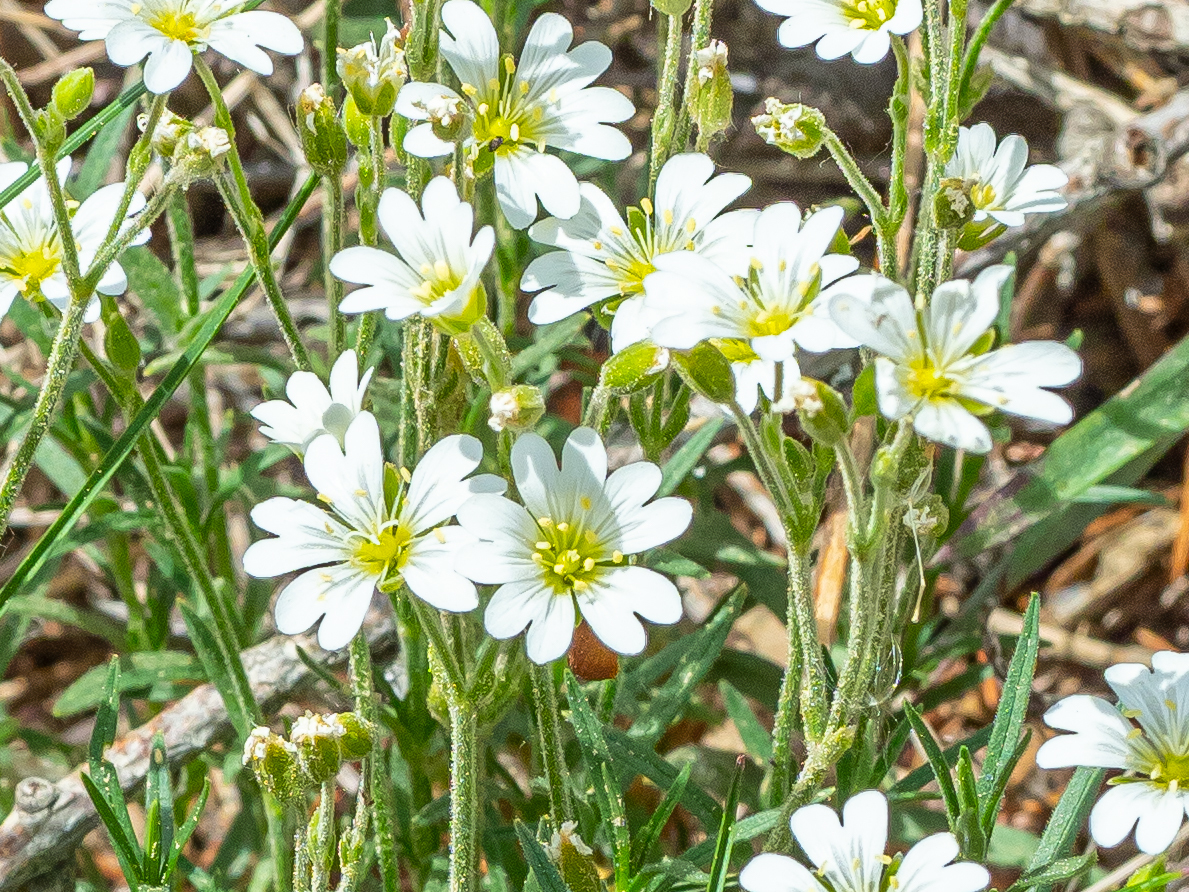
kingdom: Plantae
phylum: Tracheophyta
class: Magnoliopsida
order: Caryophyllales
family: Caryophyllaceae
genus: Cerastium
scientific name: Cerastium arvense
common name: Field mouse-ear
